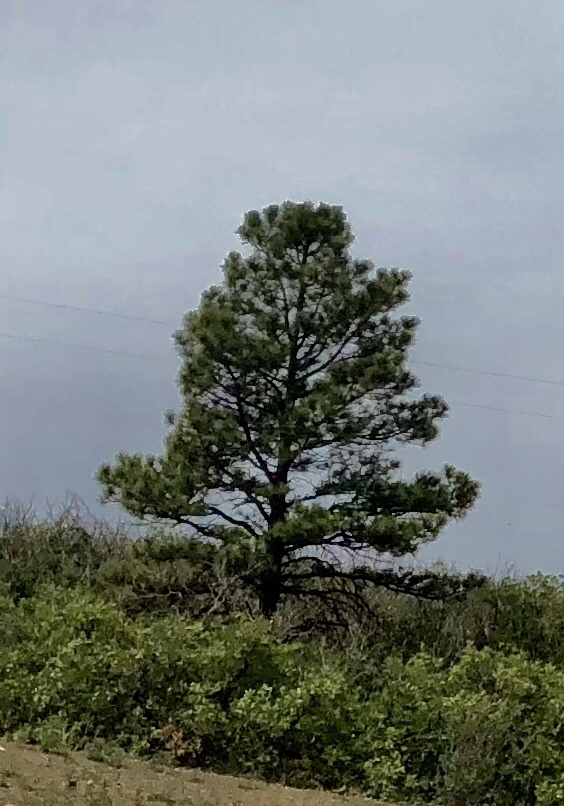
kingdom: Plantae
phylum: Tracheophyta
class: Pinopsida
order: Pinales
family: Pinaceae
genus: Pinus
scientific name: Pinus ponderosa
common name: Western yellow-pine
